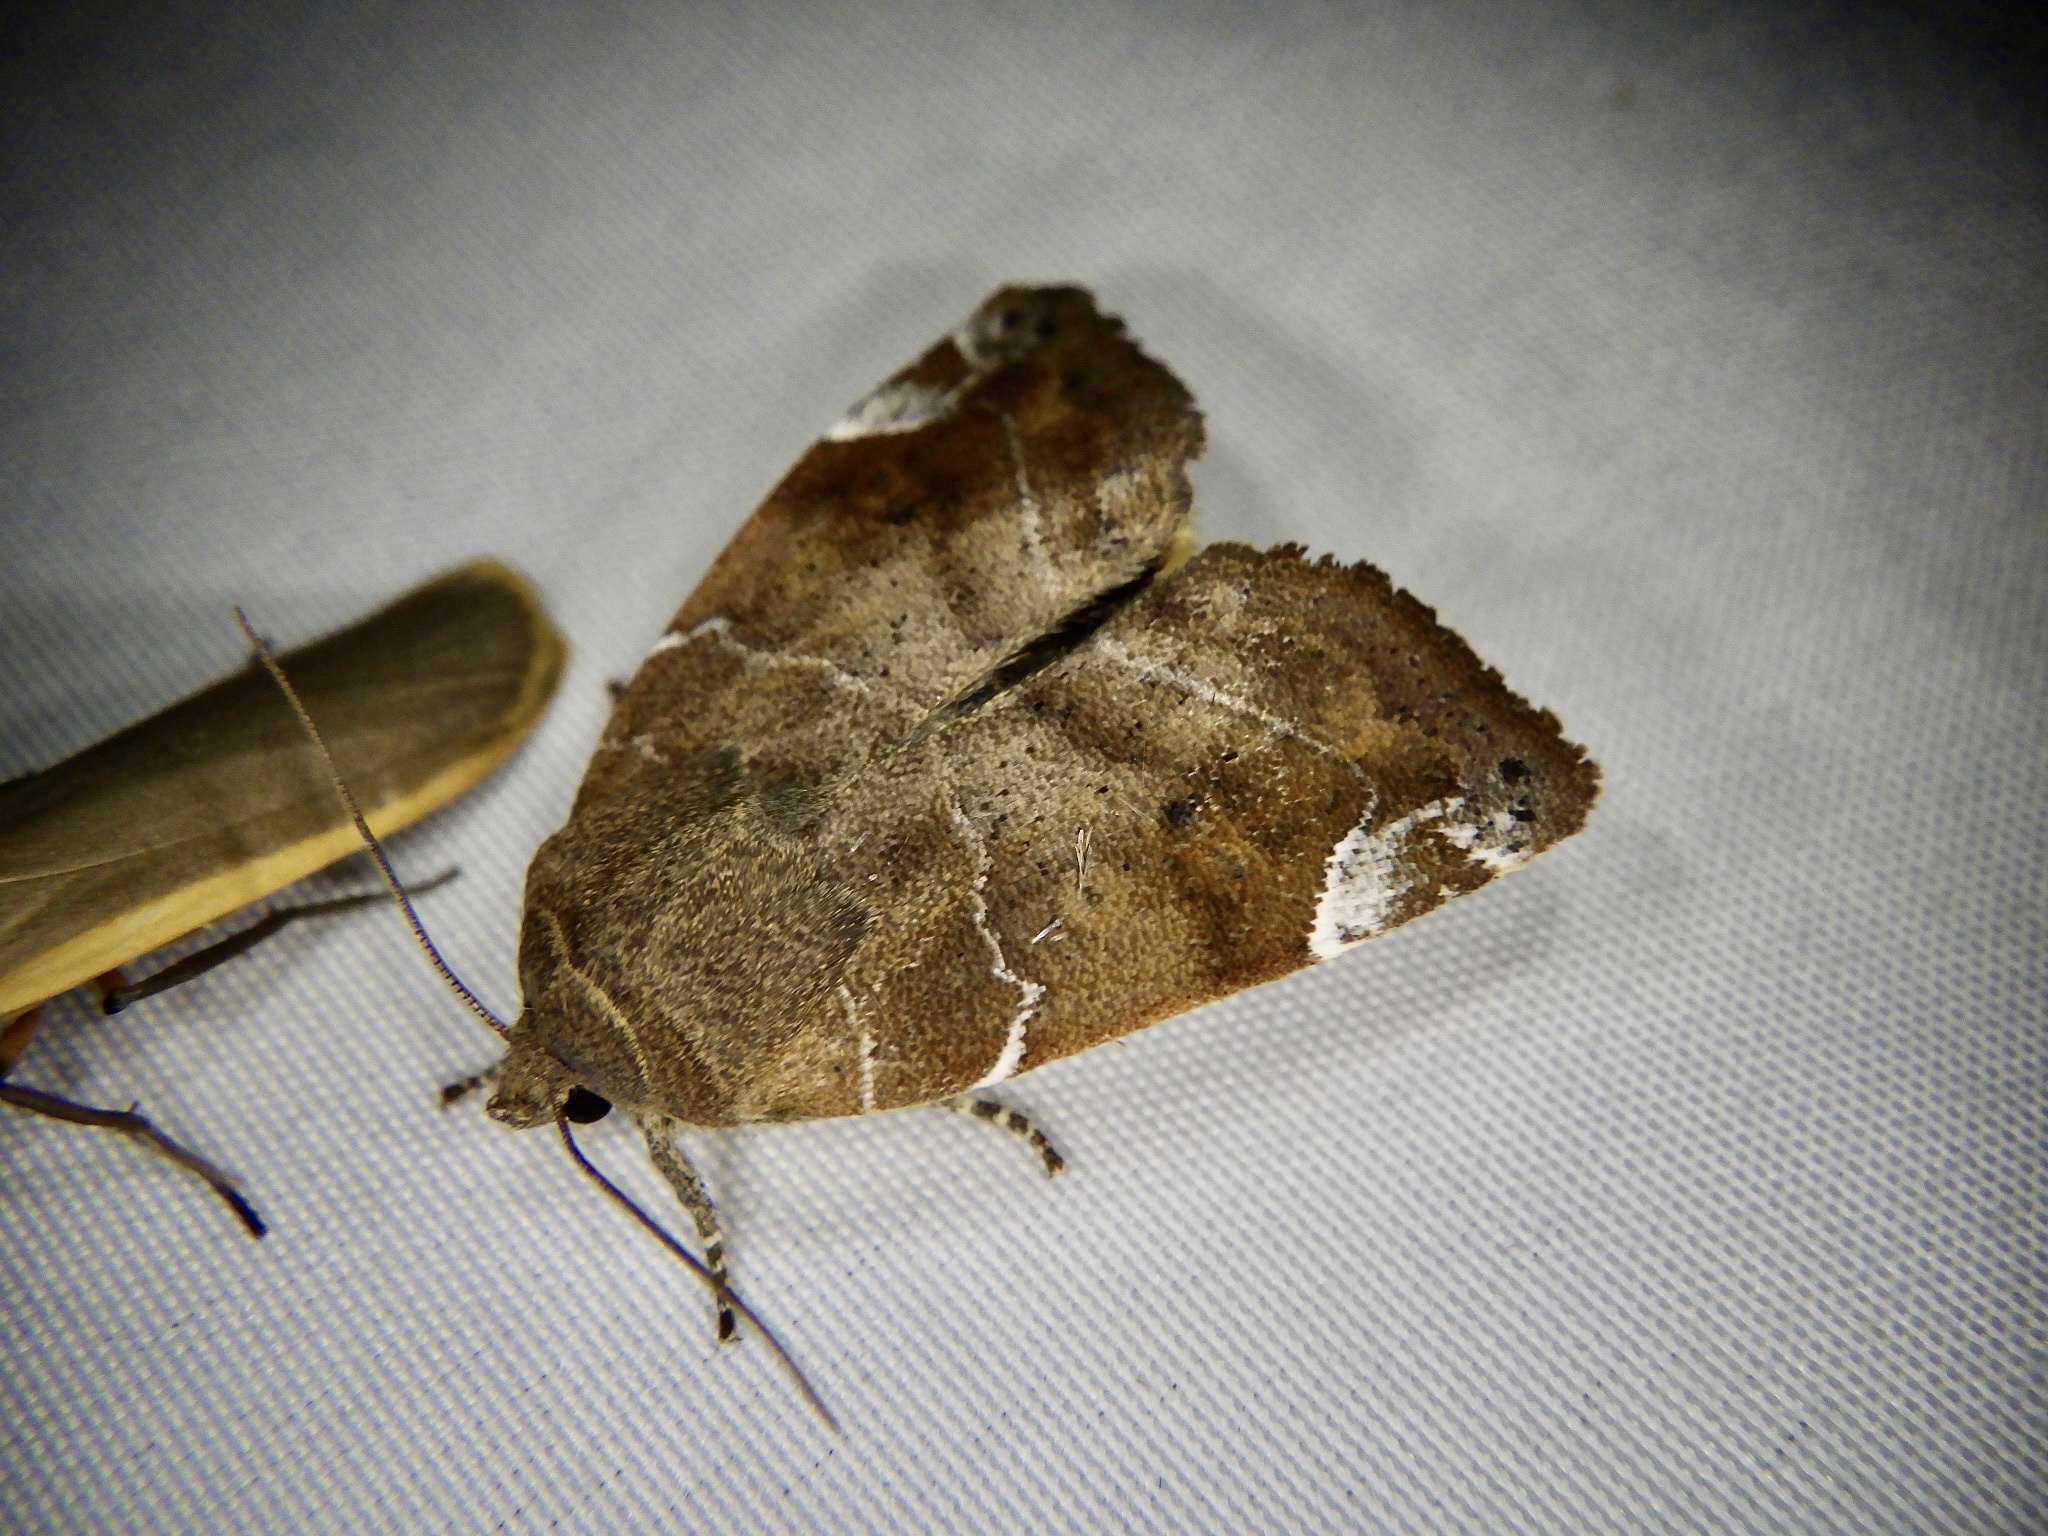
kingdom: Animalia
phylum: Arthropoda
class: Insecta
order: Lepidoptera
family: Noctuidae
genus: Cosmia
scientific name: Cosmia affinis
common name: Lesser-spotted pinion
